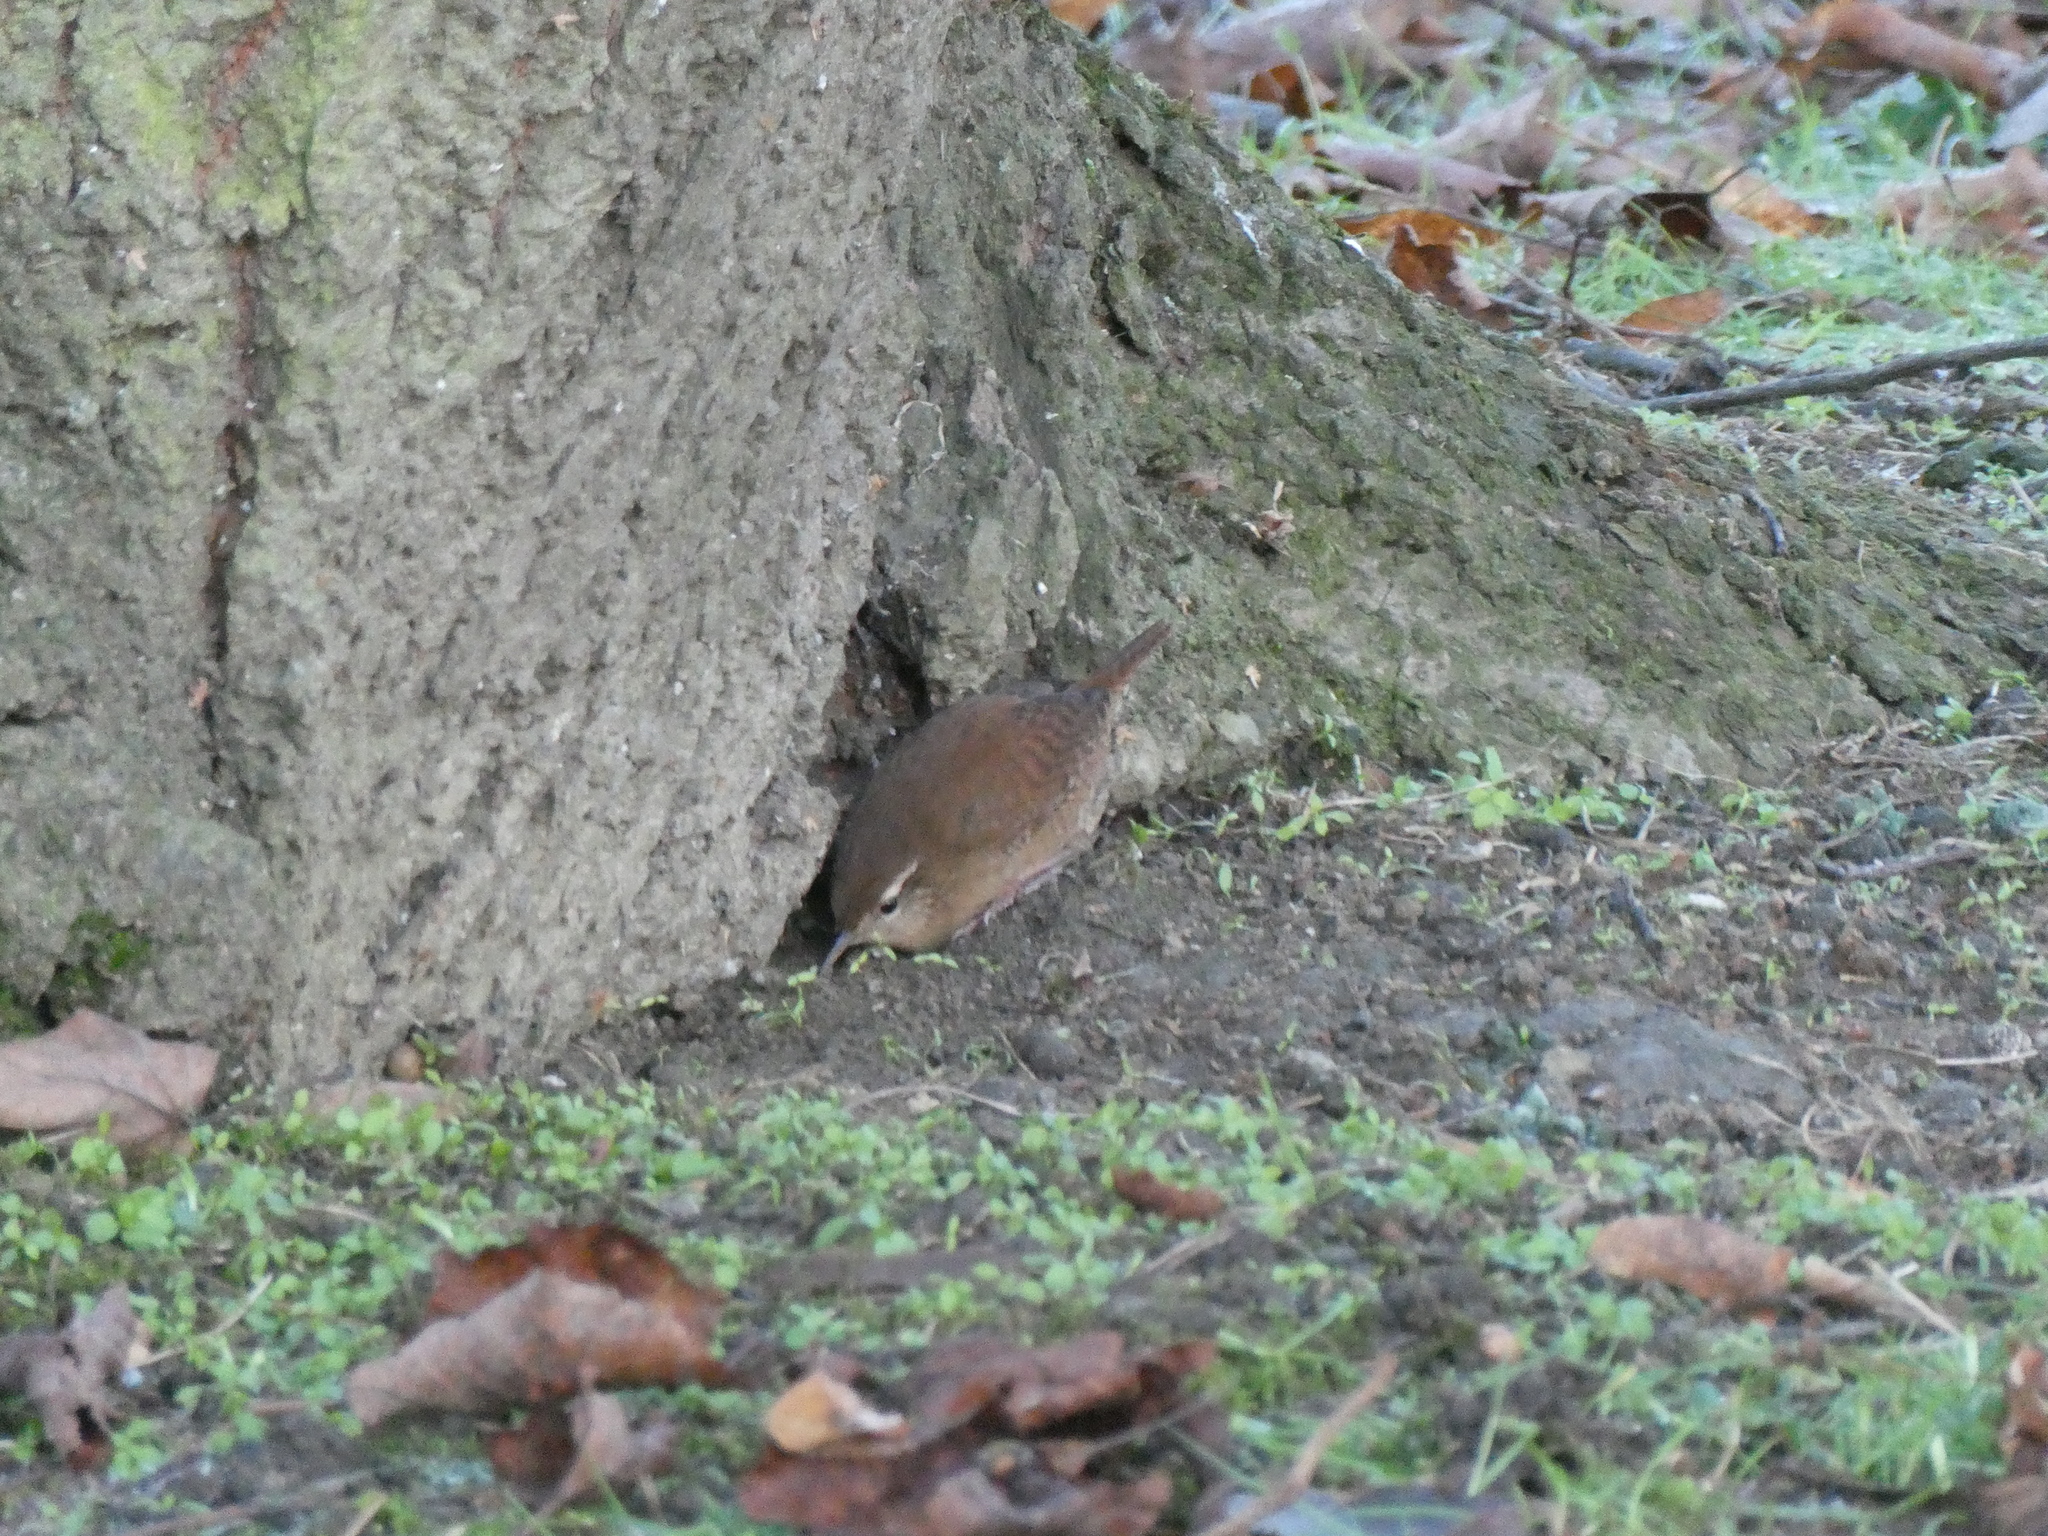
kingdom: Animalia
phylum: Chordata
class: Aves
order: Passeriformes
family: Troglodytidae
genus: Troglodytes
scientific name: Troglodytes troglodytes
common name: Eurasian wren
